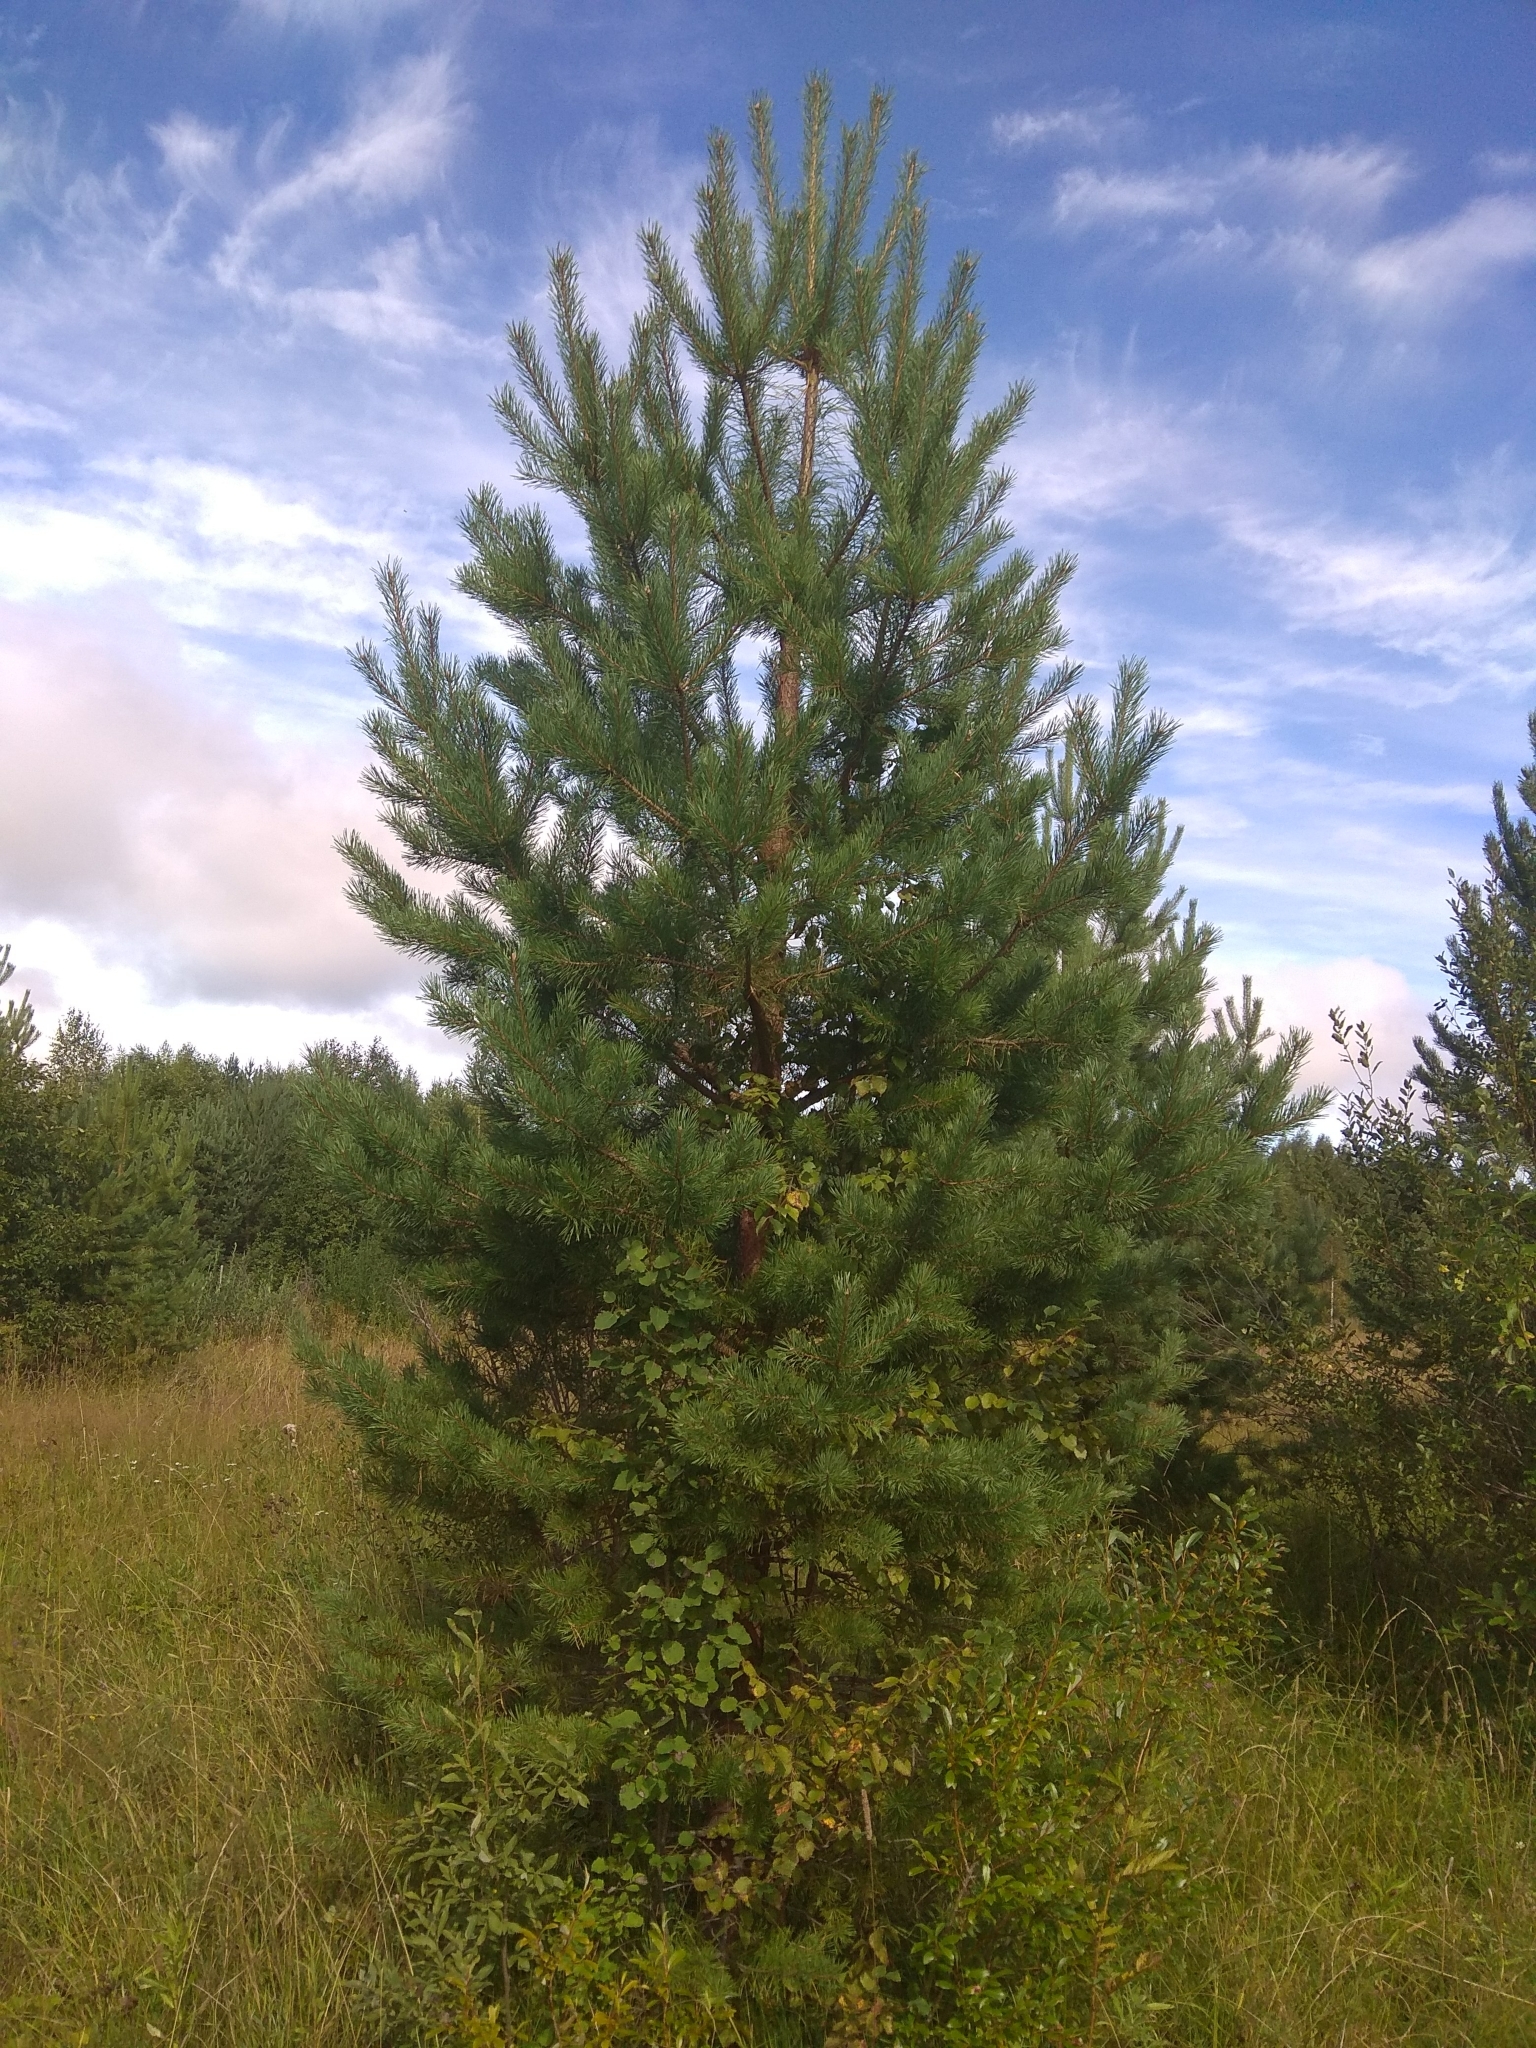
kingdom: Plantae
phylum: Tracheophyta
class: Pinopsida
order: Pinales
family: Pinaceae
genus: Pinus
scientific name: Pinus sylvestris
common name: Scots pine
